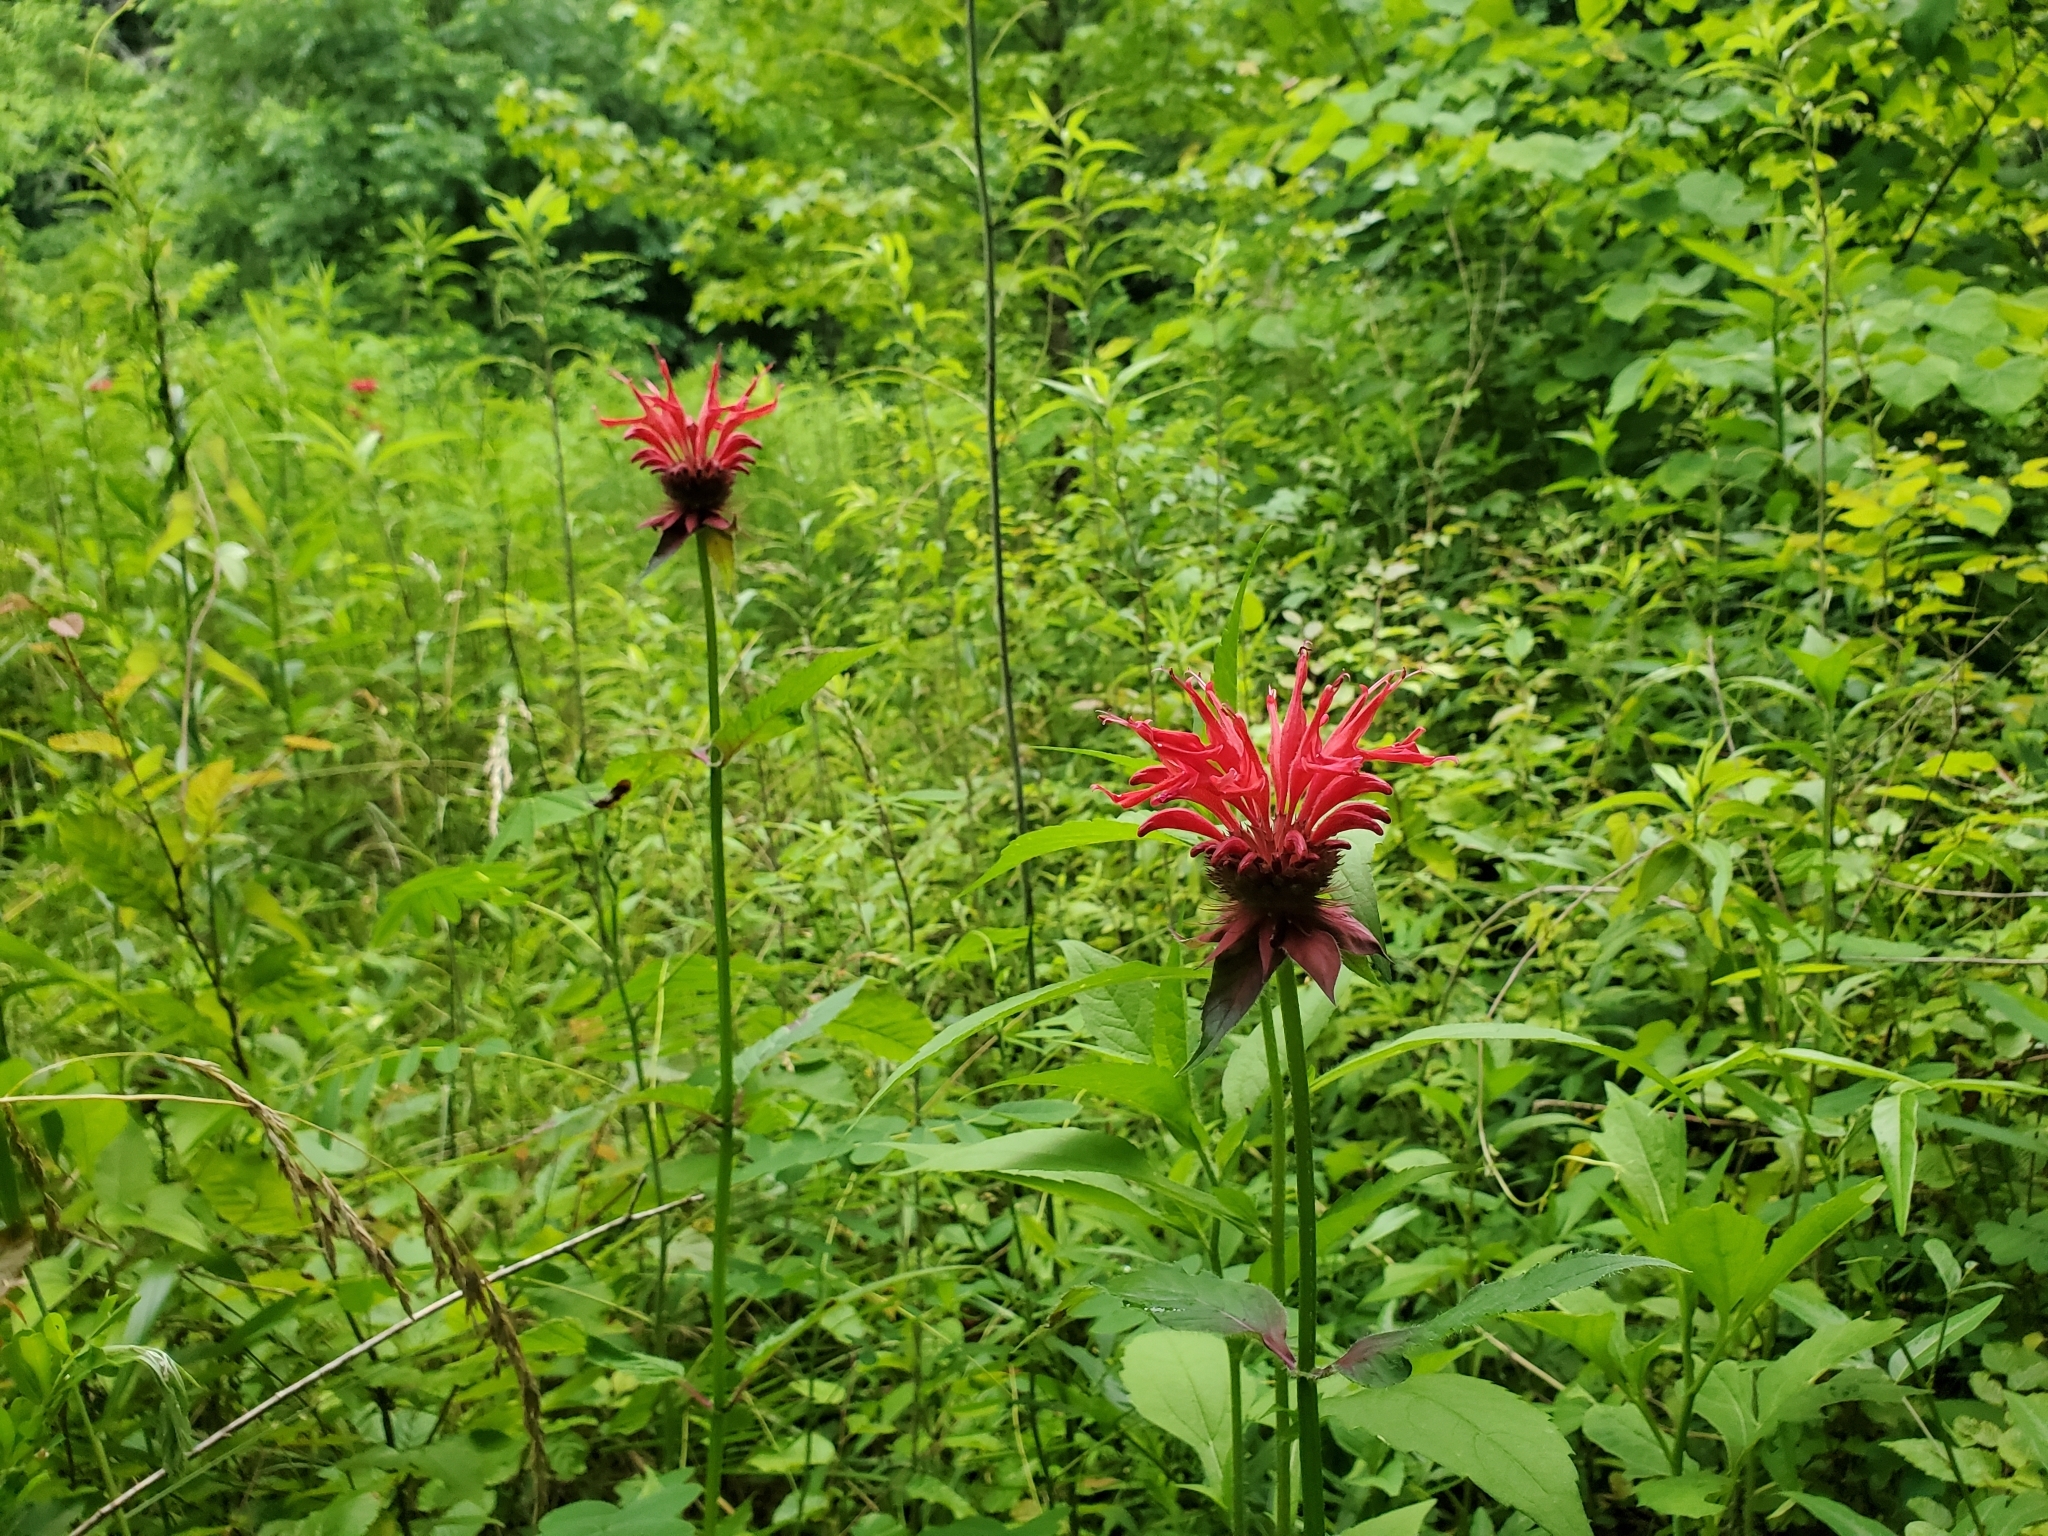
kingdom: Plantae
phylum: Tracheophyta
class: Magnoliopsida
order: Lamiales
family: Lamiaceae
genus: Monarda
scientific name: Monarda didyma
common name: Beebalm
